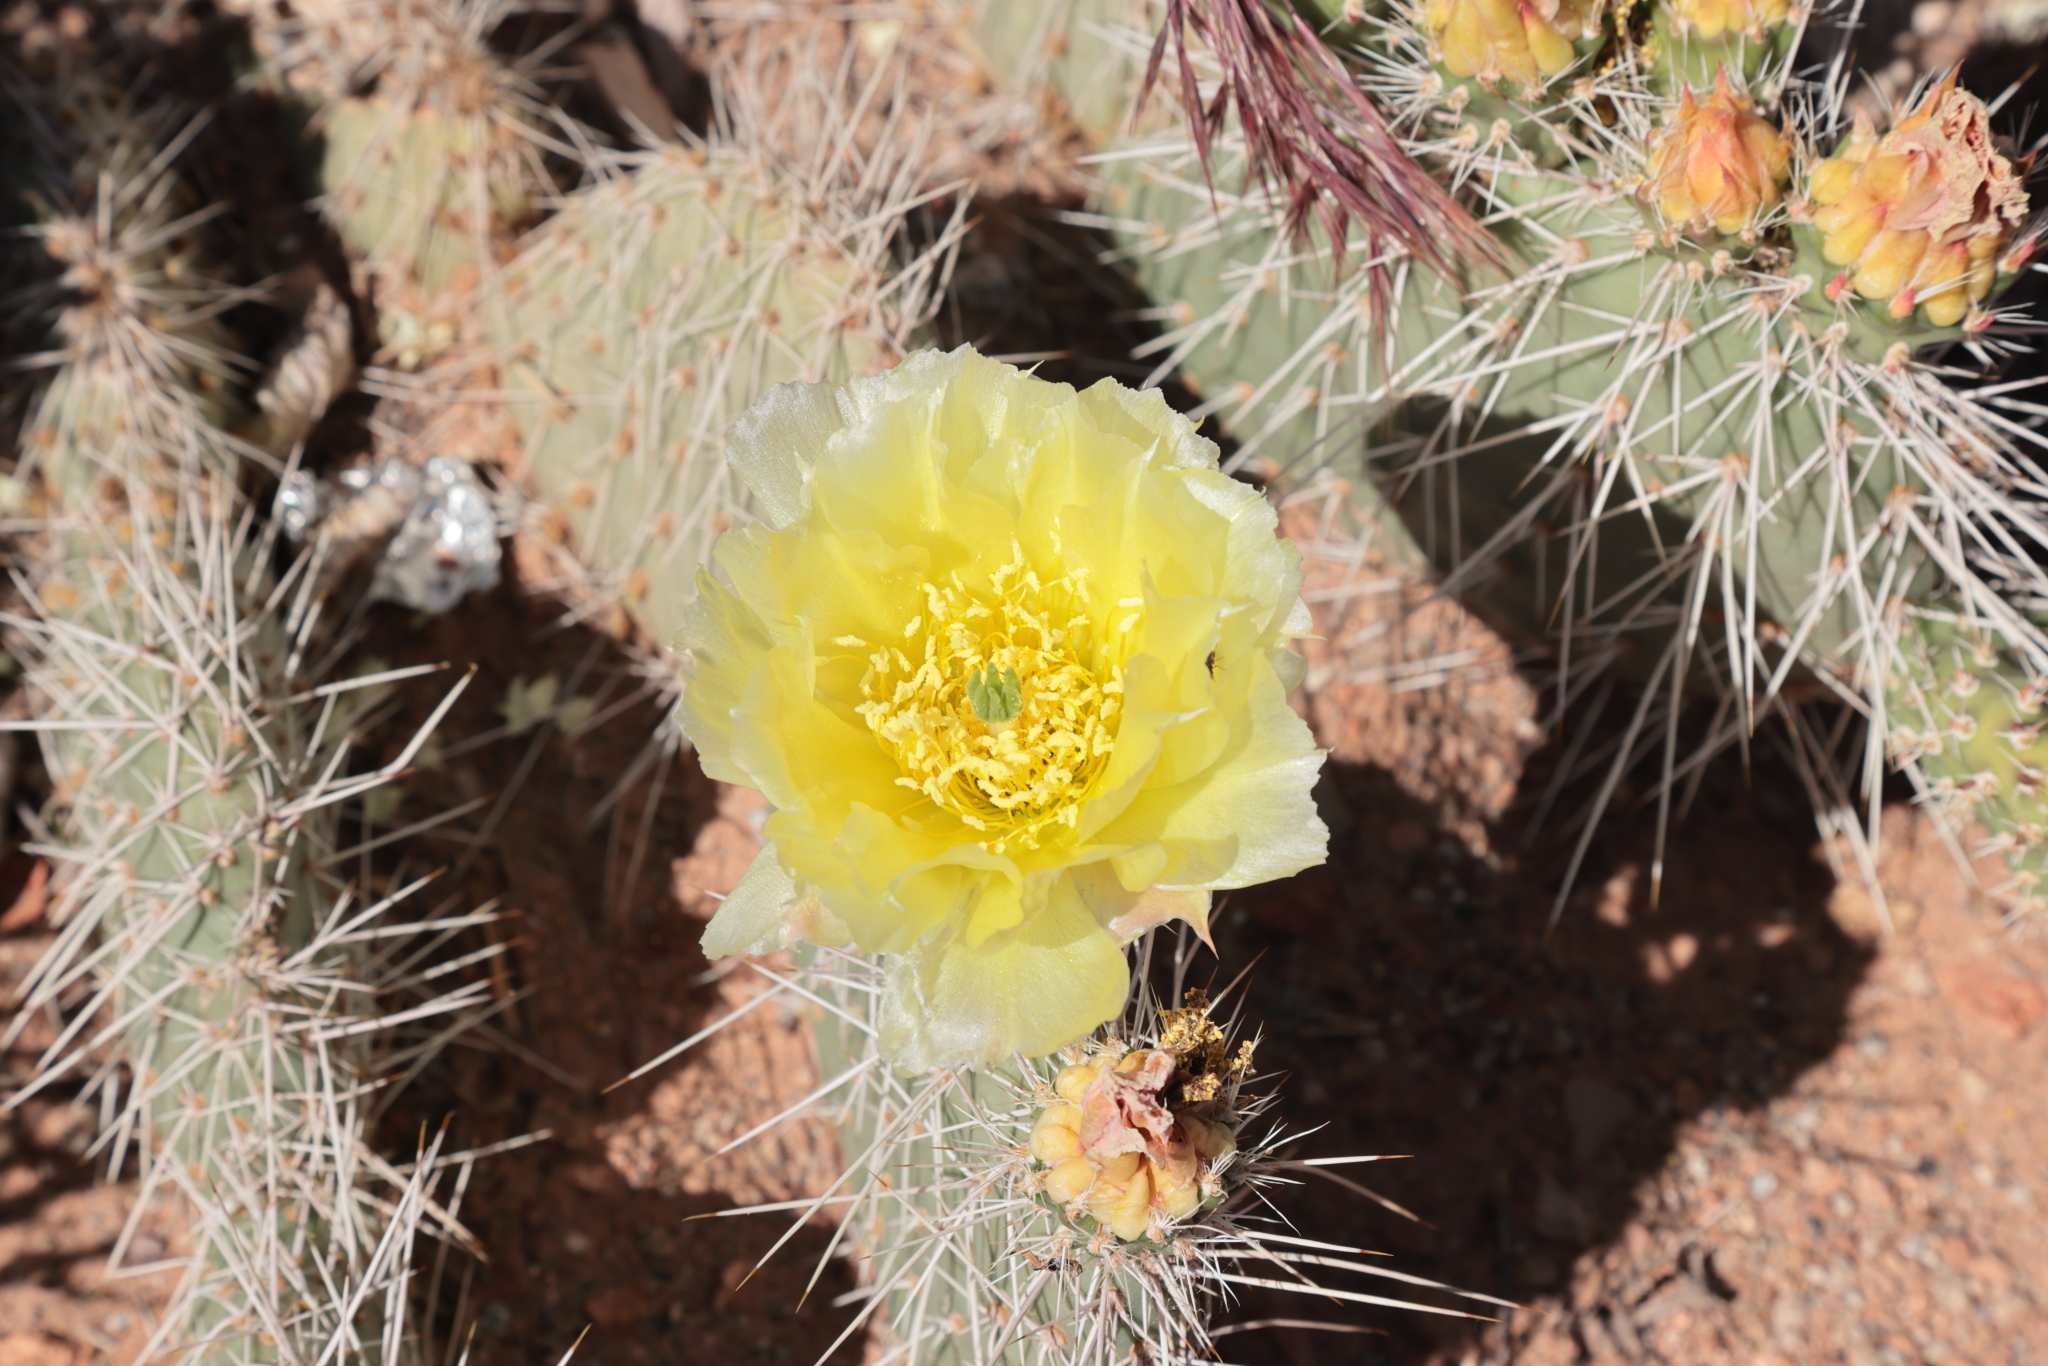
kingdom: Plantae
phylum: Tracheophyta
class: Magnoliopsida
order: Caryophyllales
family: Cactaceae
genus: Opuntia
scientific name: Opuntia polyacantha
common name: Plains prickly-pear
